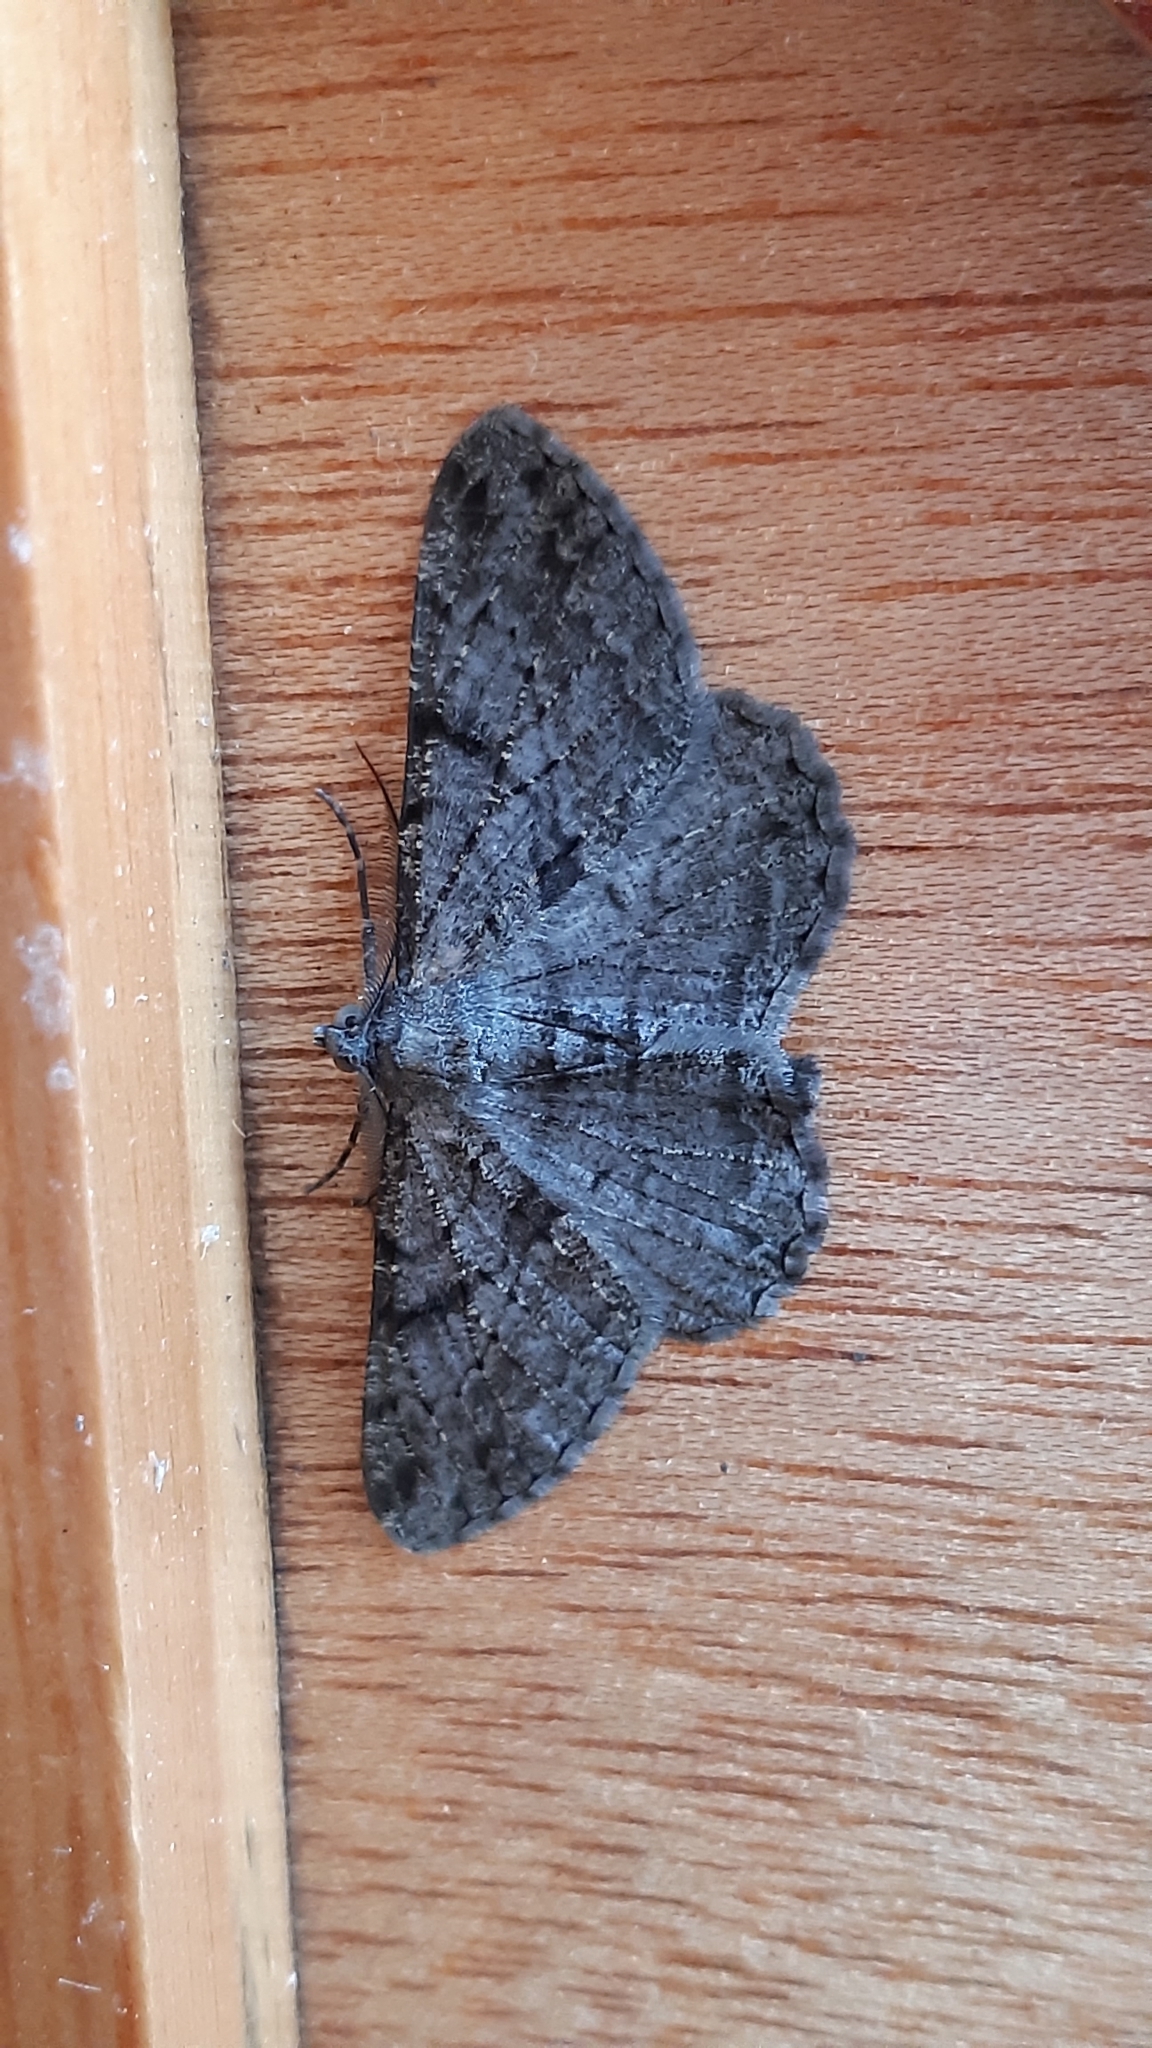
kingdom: Animalia
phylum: Arthropoda
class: Insecta
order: Lepidoptera
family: Geometridae
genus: Peribatodes
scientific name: Peribatodes rhomboidaria
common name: Willow beauty
